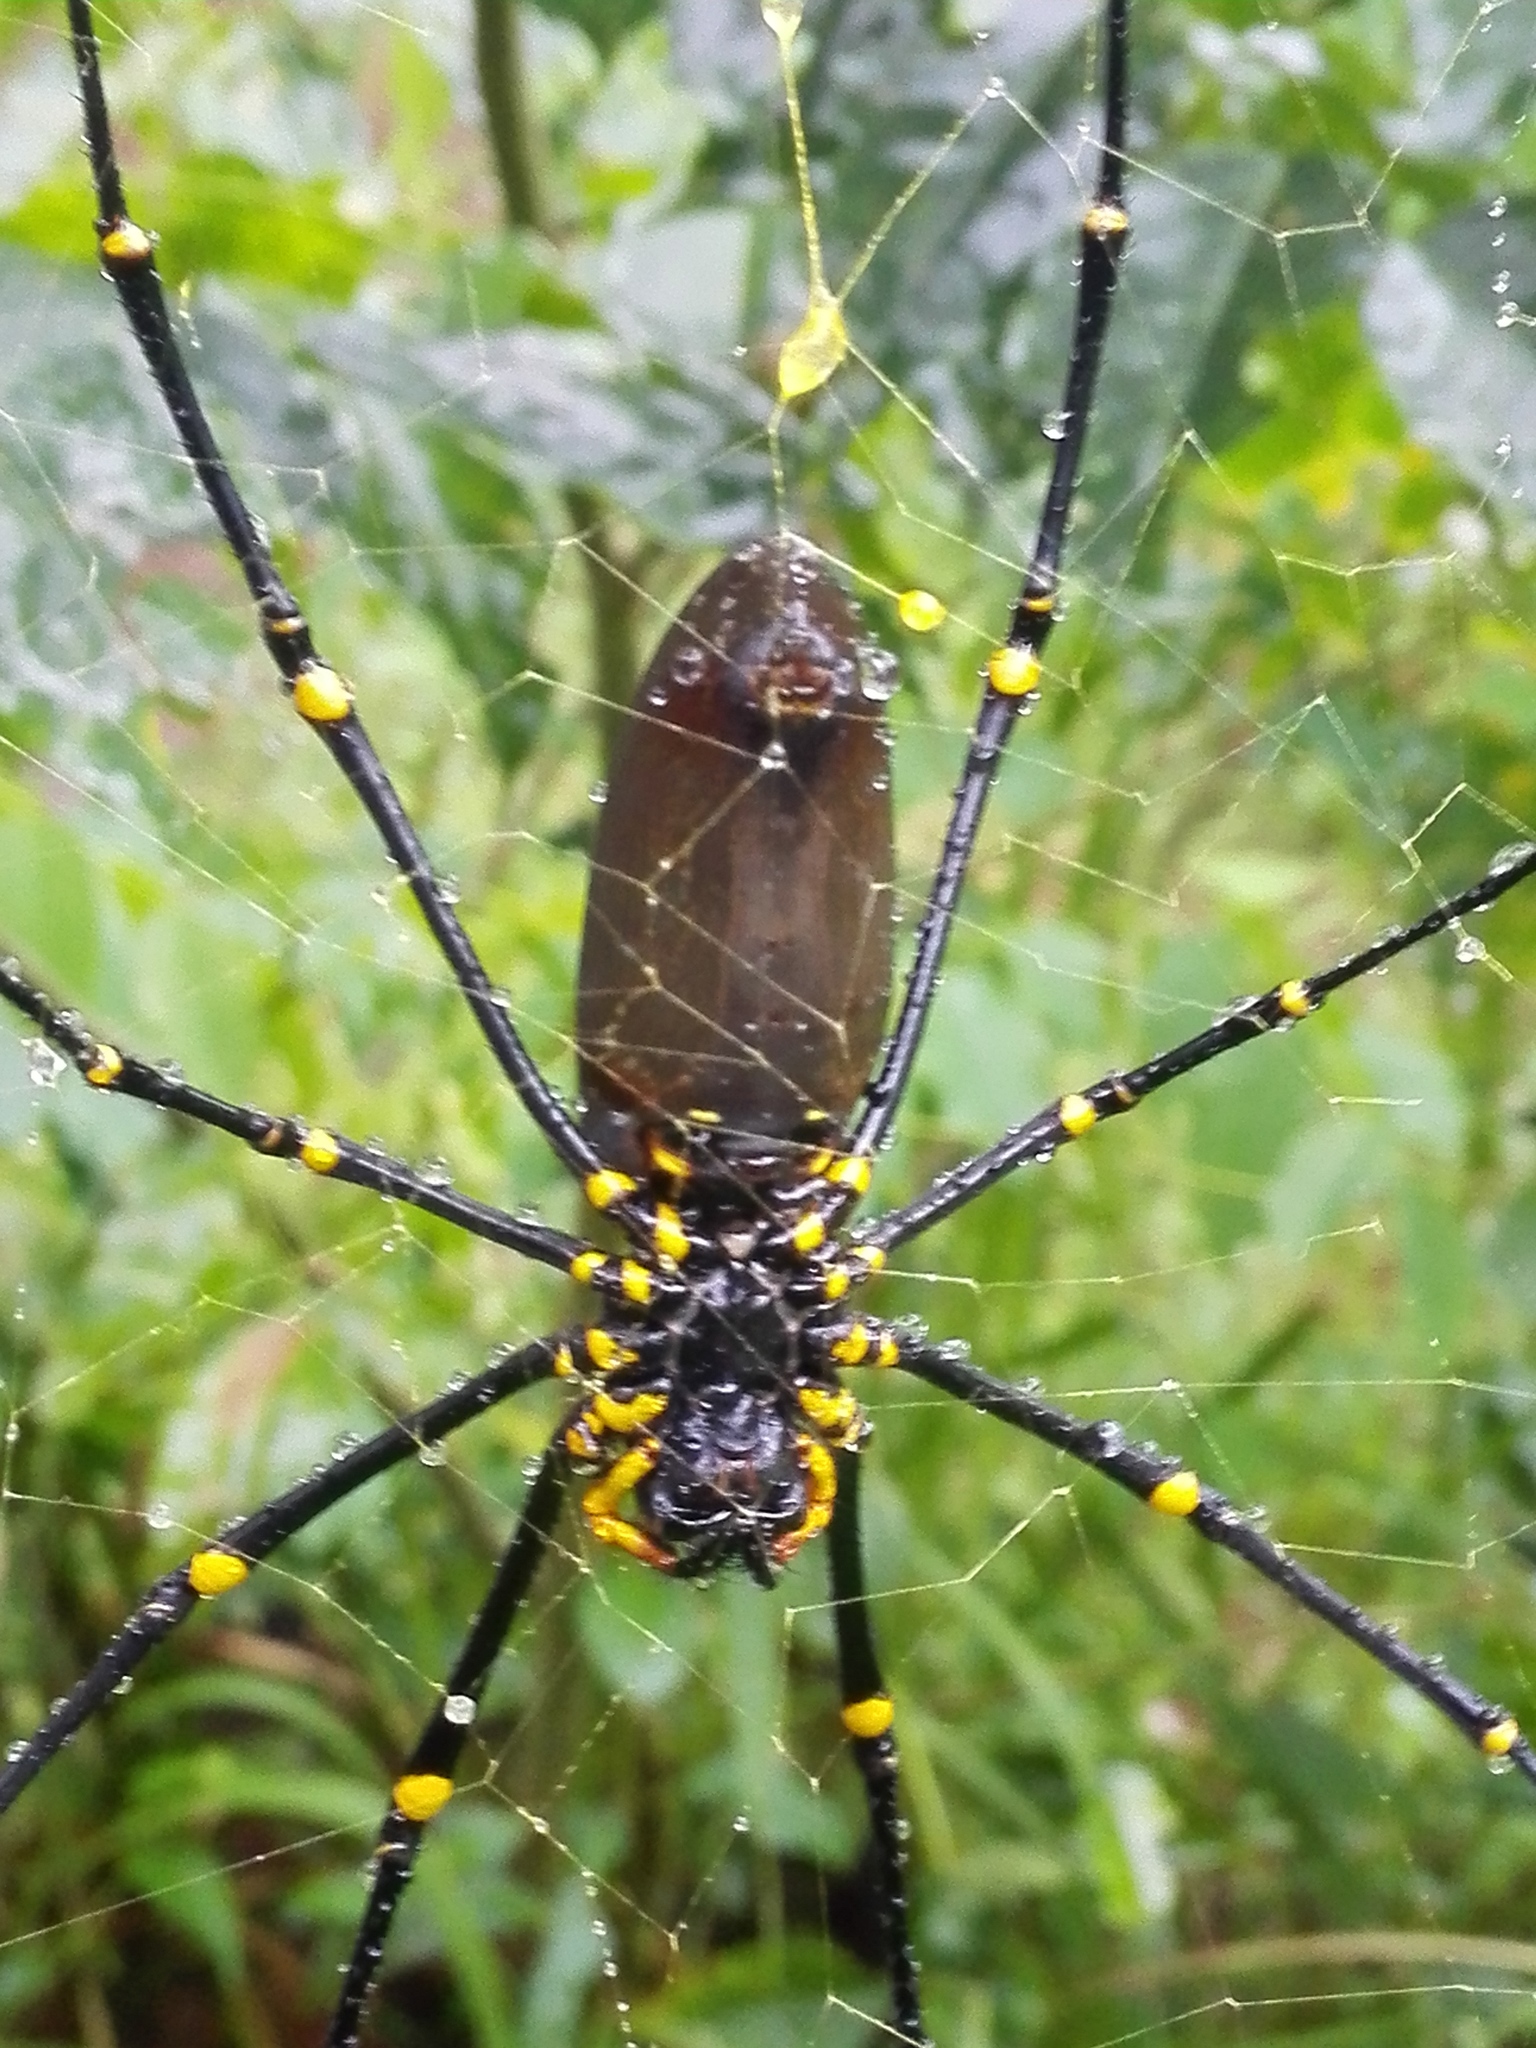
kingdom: Animalia
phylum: Arthropoda
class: Arachnida
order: Araneae
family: Araneidae
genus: Nephila
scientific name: Nephila pilipes
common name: Giant golden orb weaver
